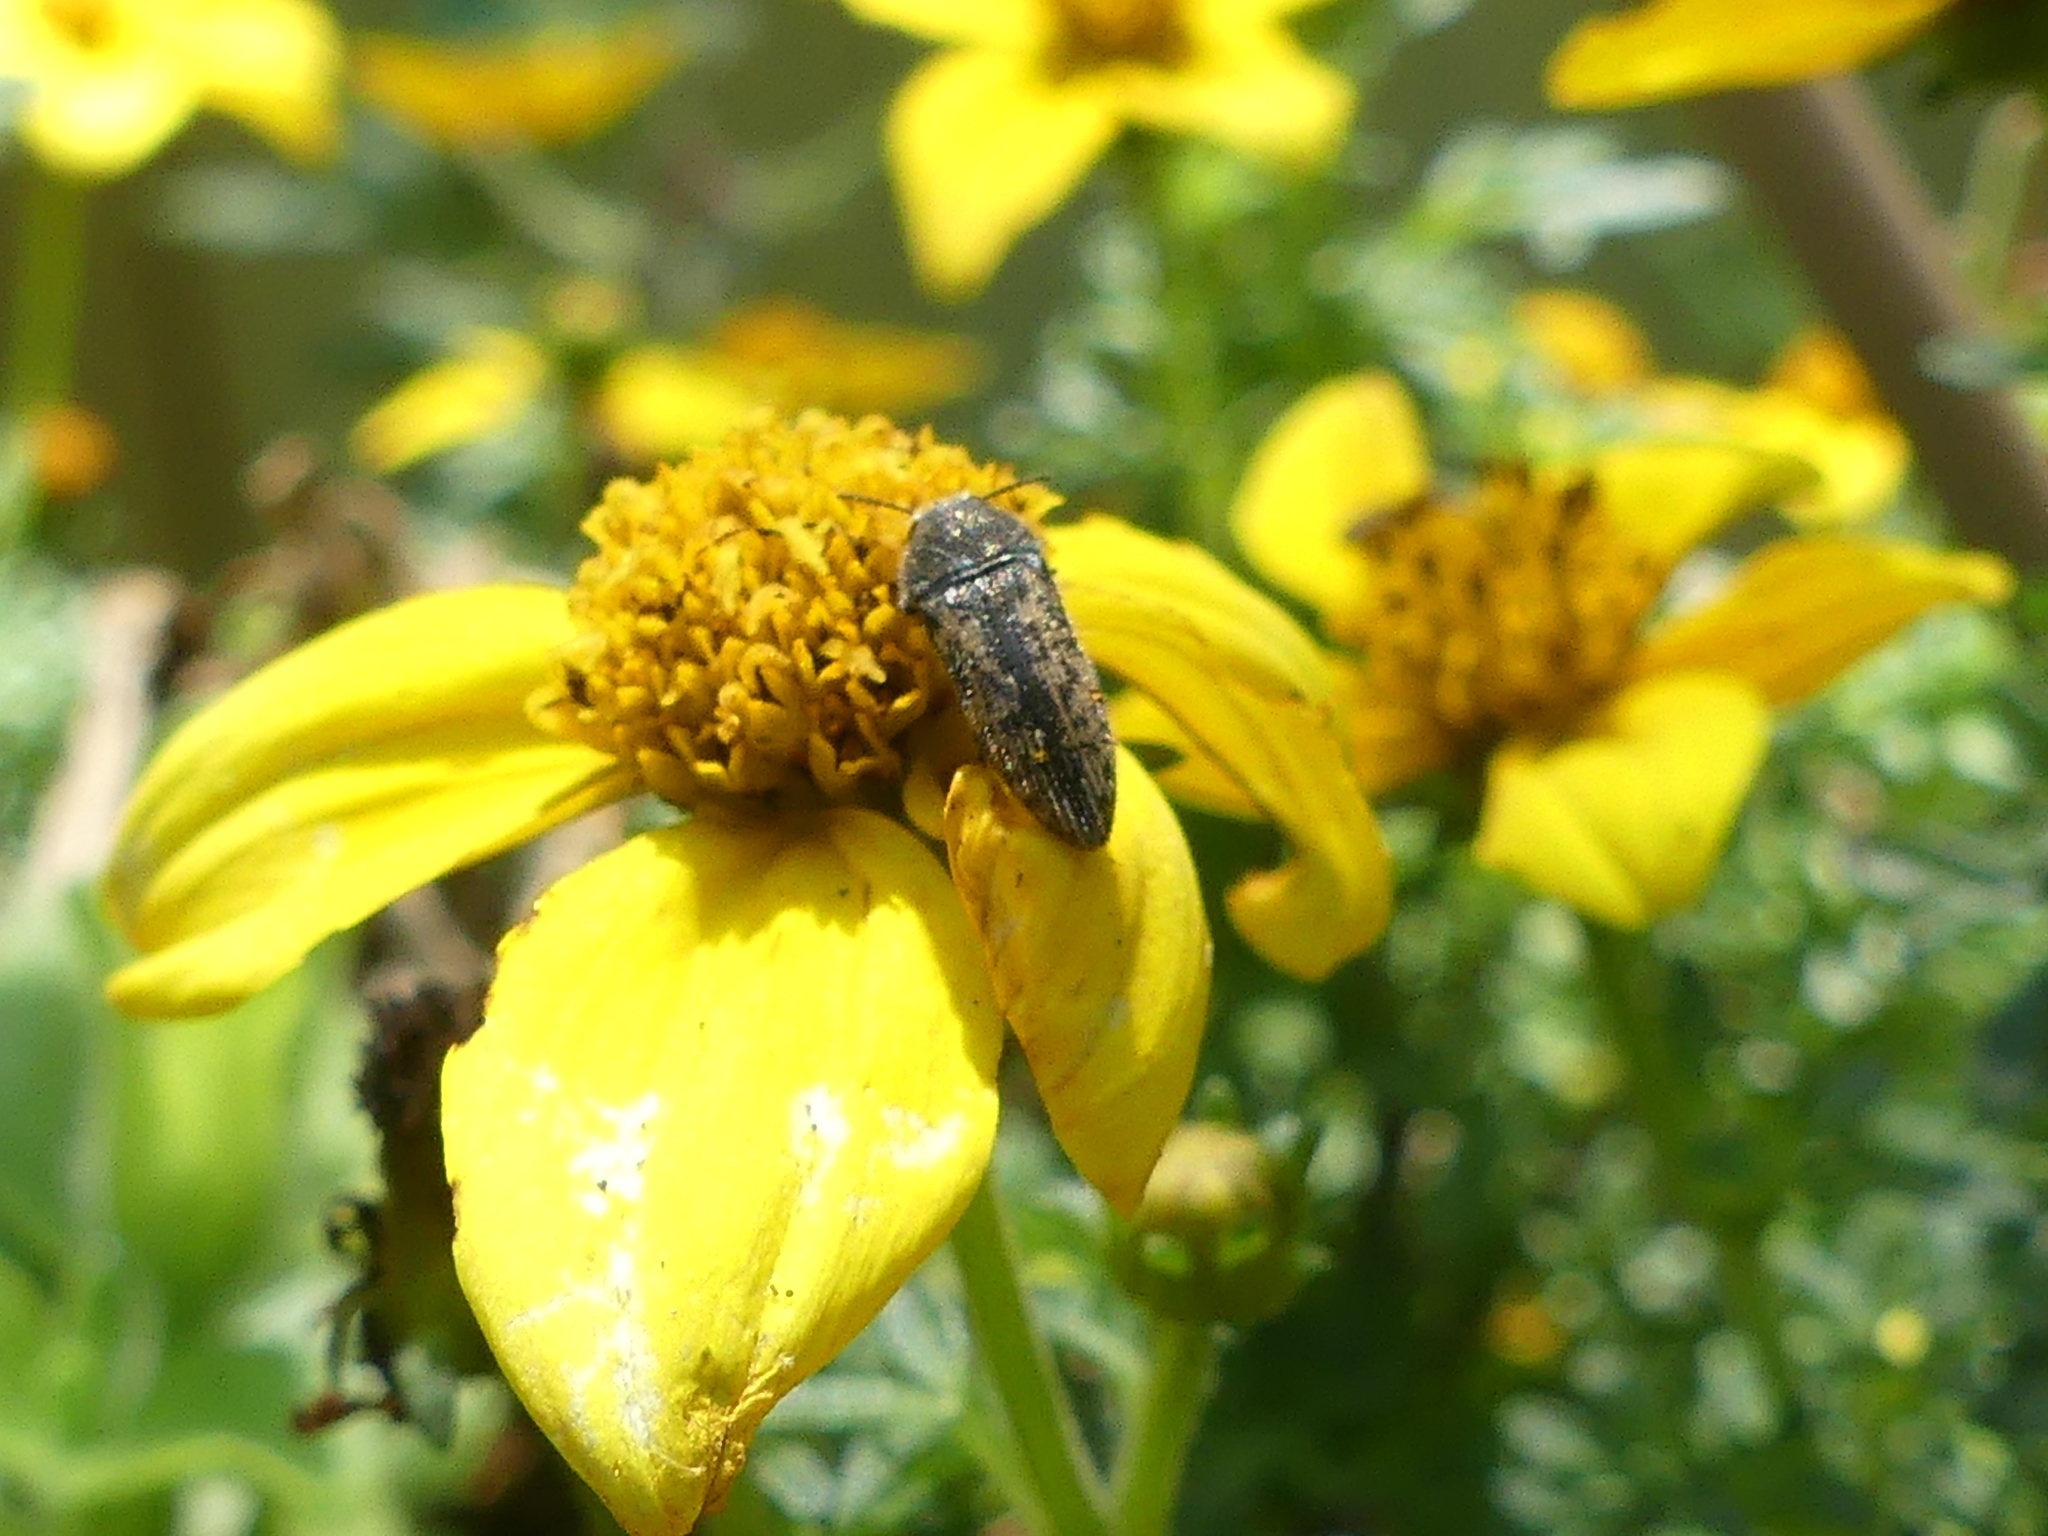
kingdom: Animalia
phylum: Arthropoda
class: Insecta
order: Coleoptera
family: Buprestidae
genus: Acmaeodera
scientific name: Acmaeodera neglecta
